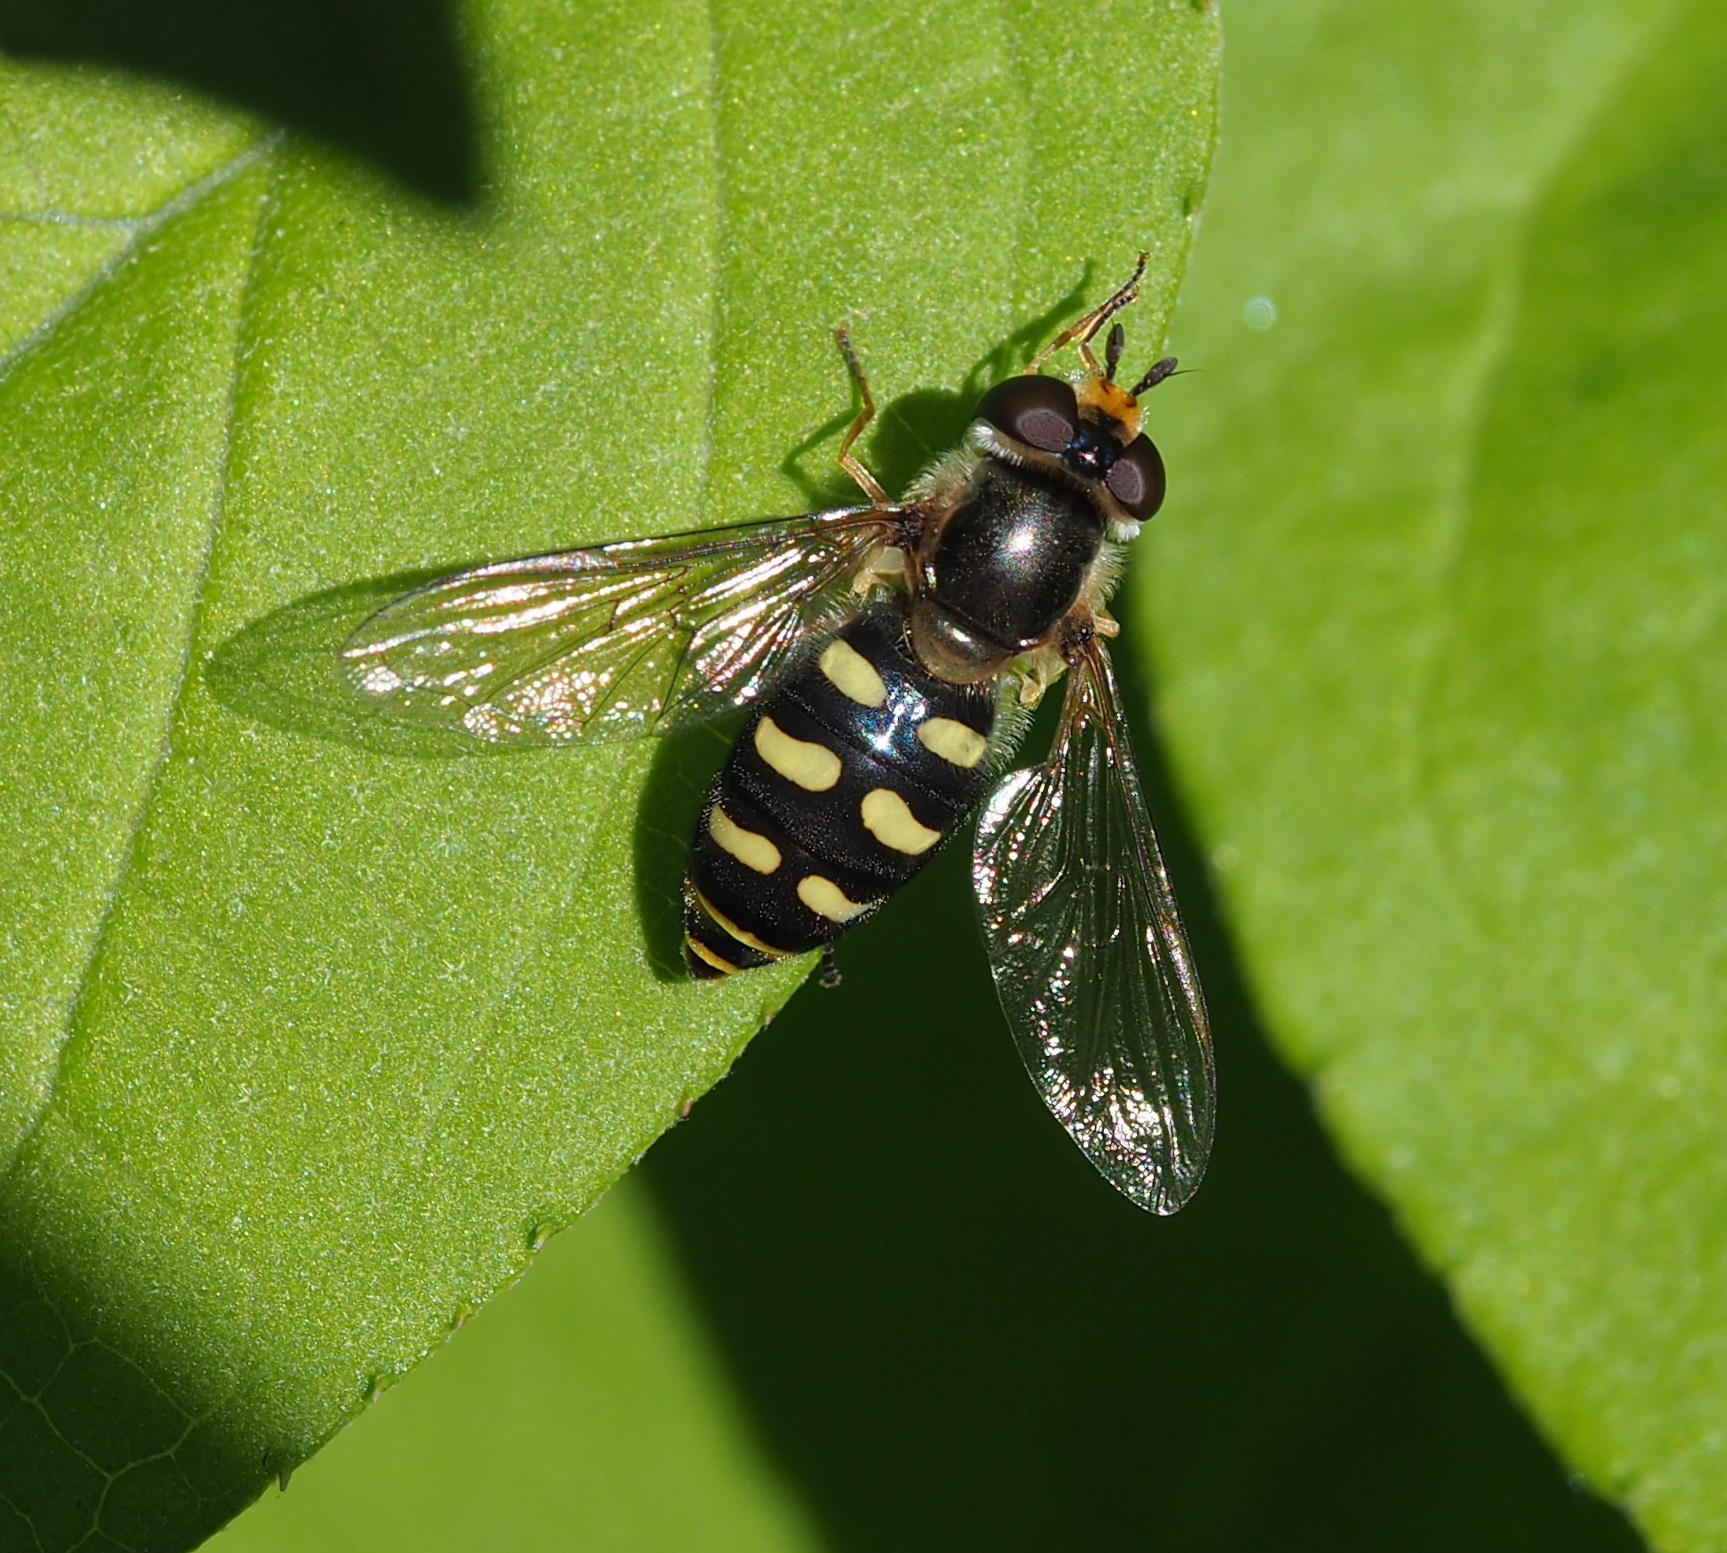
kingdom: Animalia
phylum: Arthropoda
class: Insecta
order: Diptera
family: Syrphidae
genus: Eupeodes
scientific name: Eupeodes luniger
